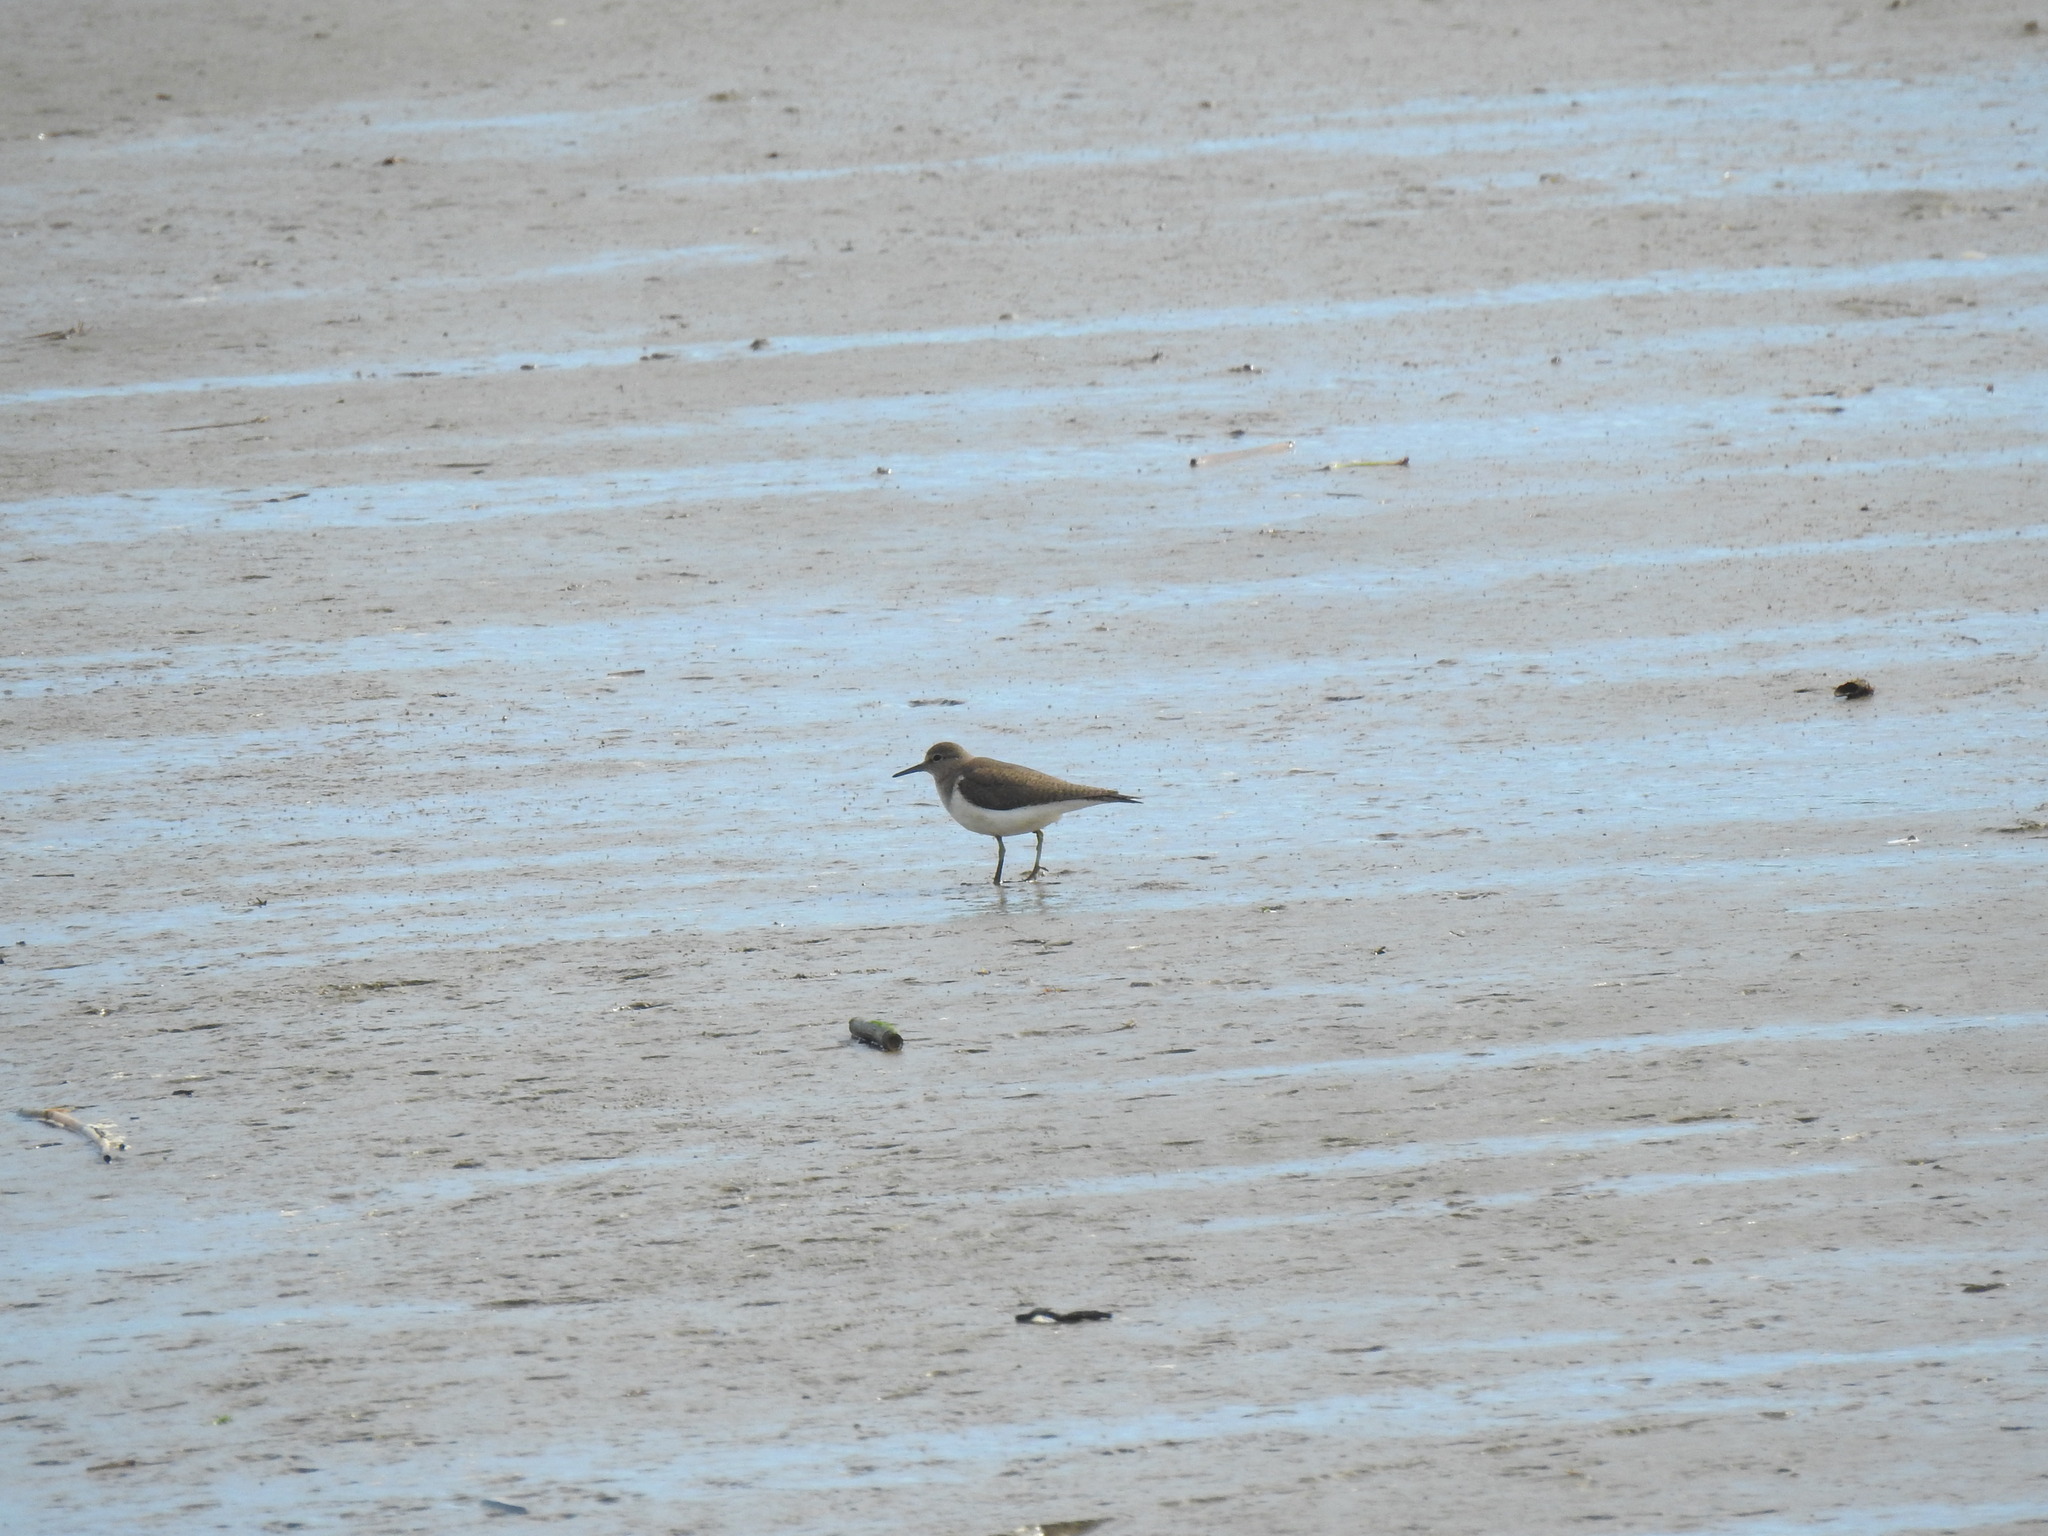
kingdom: Animalia
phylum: Chordata
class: Aves
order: Charadriiformes
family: Scolopacidae
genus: Actitis
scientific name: Actitis hypoleucos
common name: Common sandpiper
